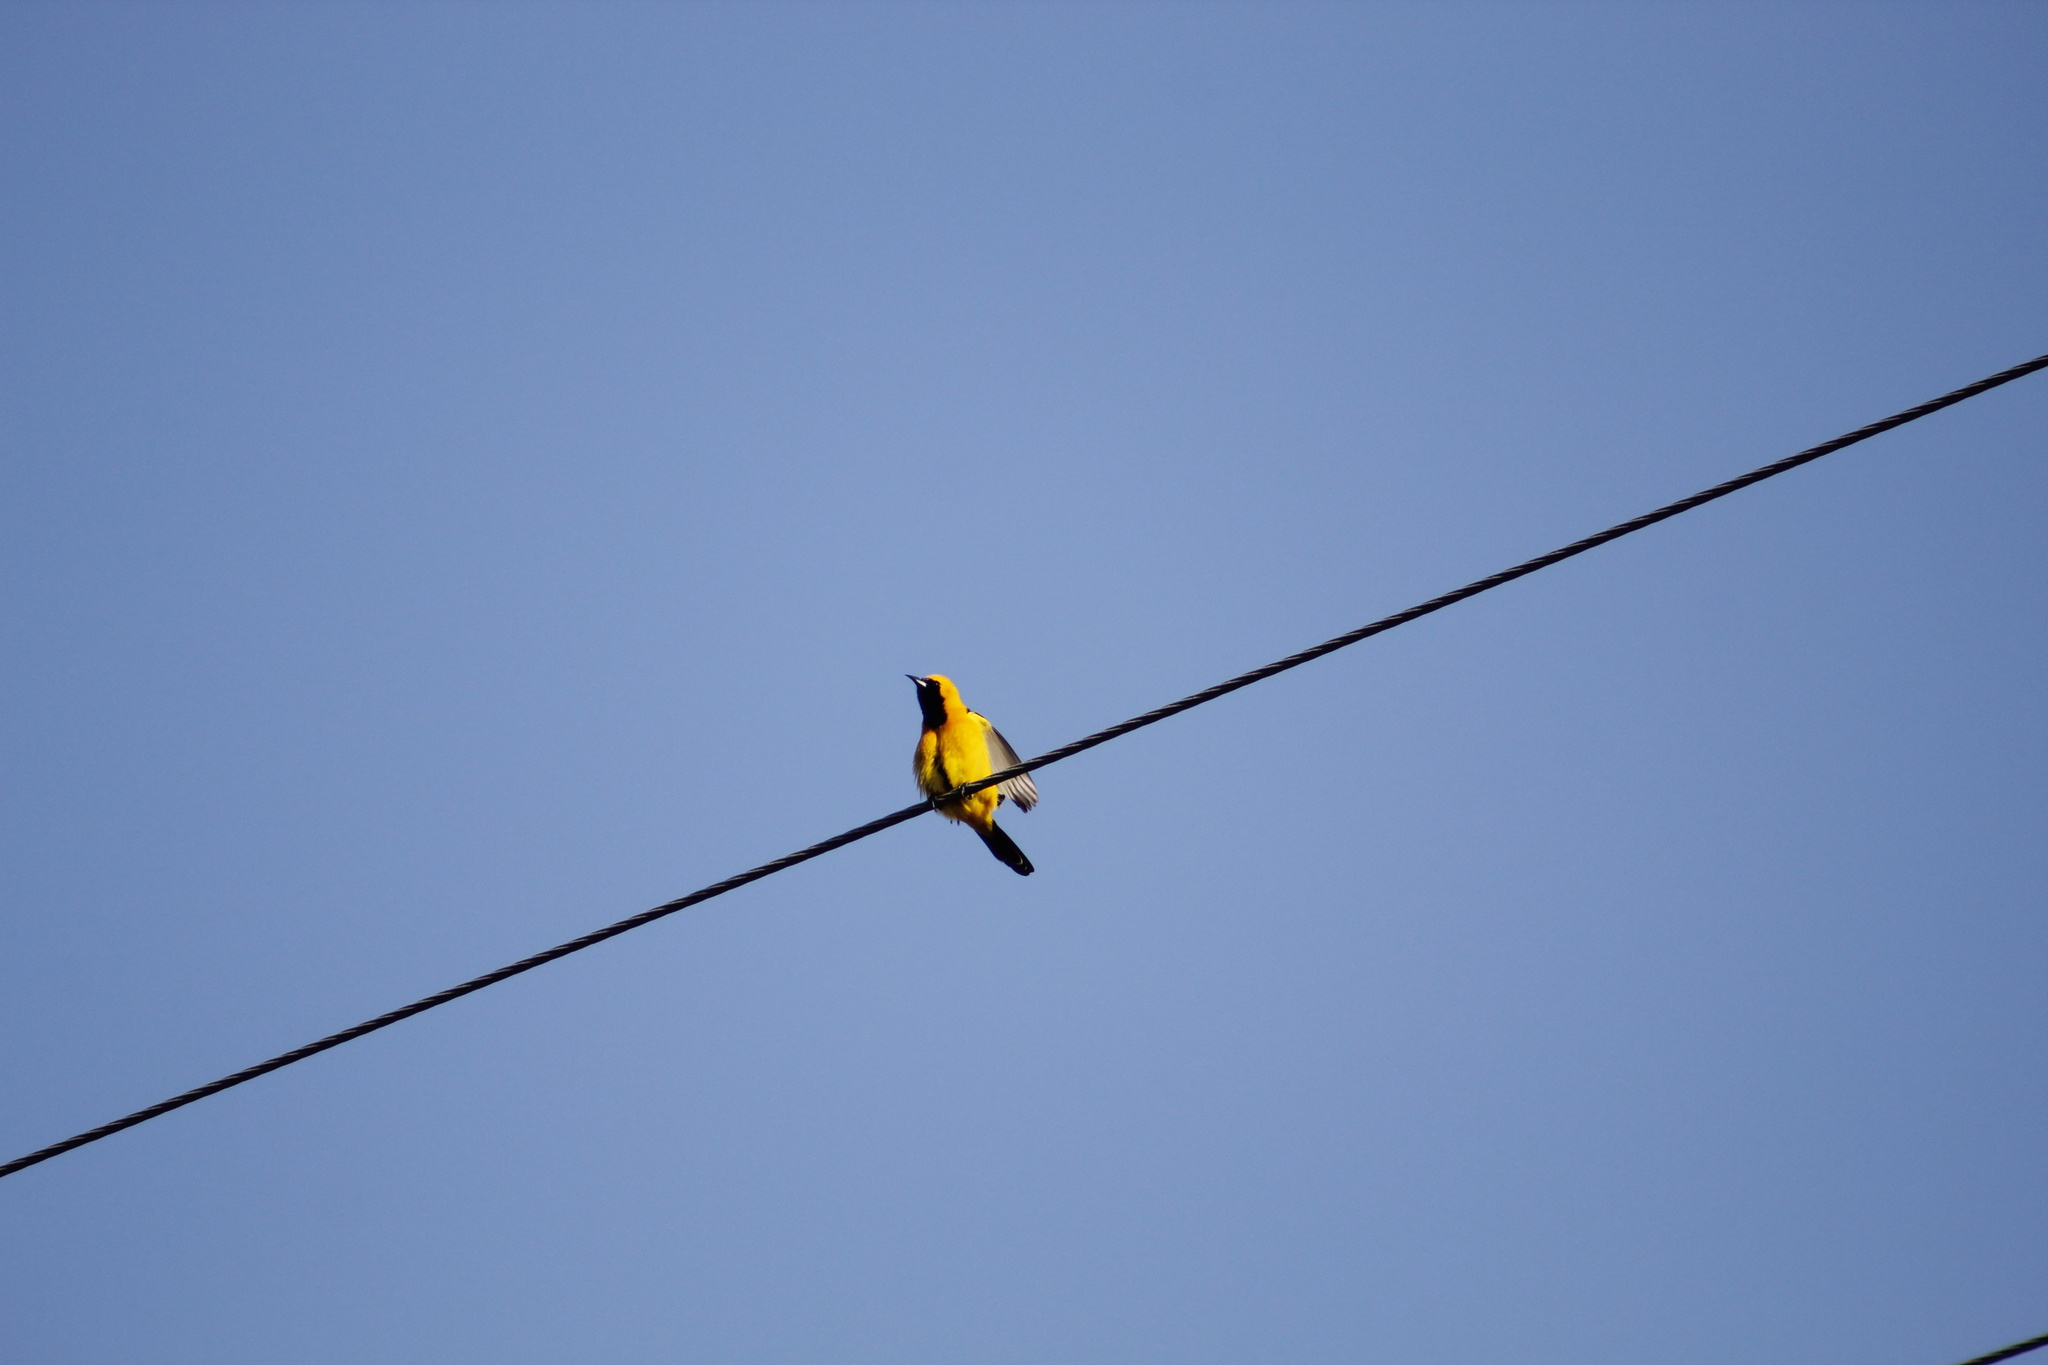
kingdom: Animalia
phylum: Chordata
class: Aves
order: Passeriformes
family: Icteridae
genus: Icterus
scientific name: Icterus cucullatus
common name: Hooded oriole
